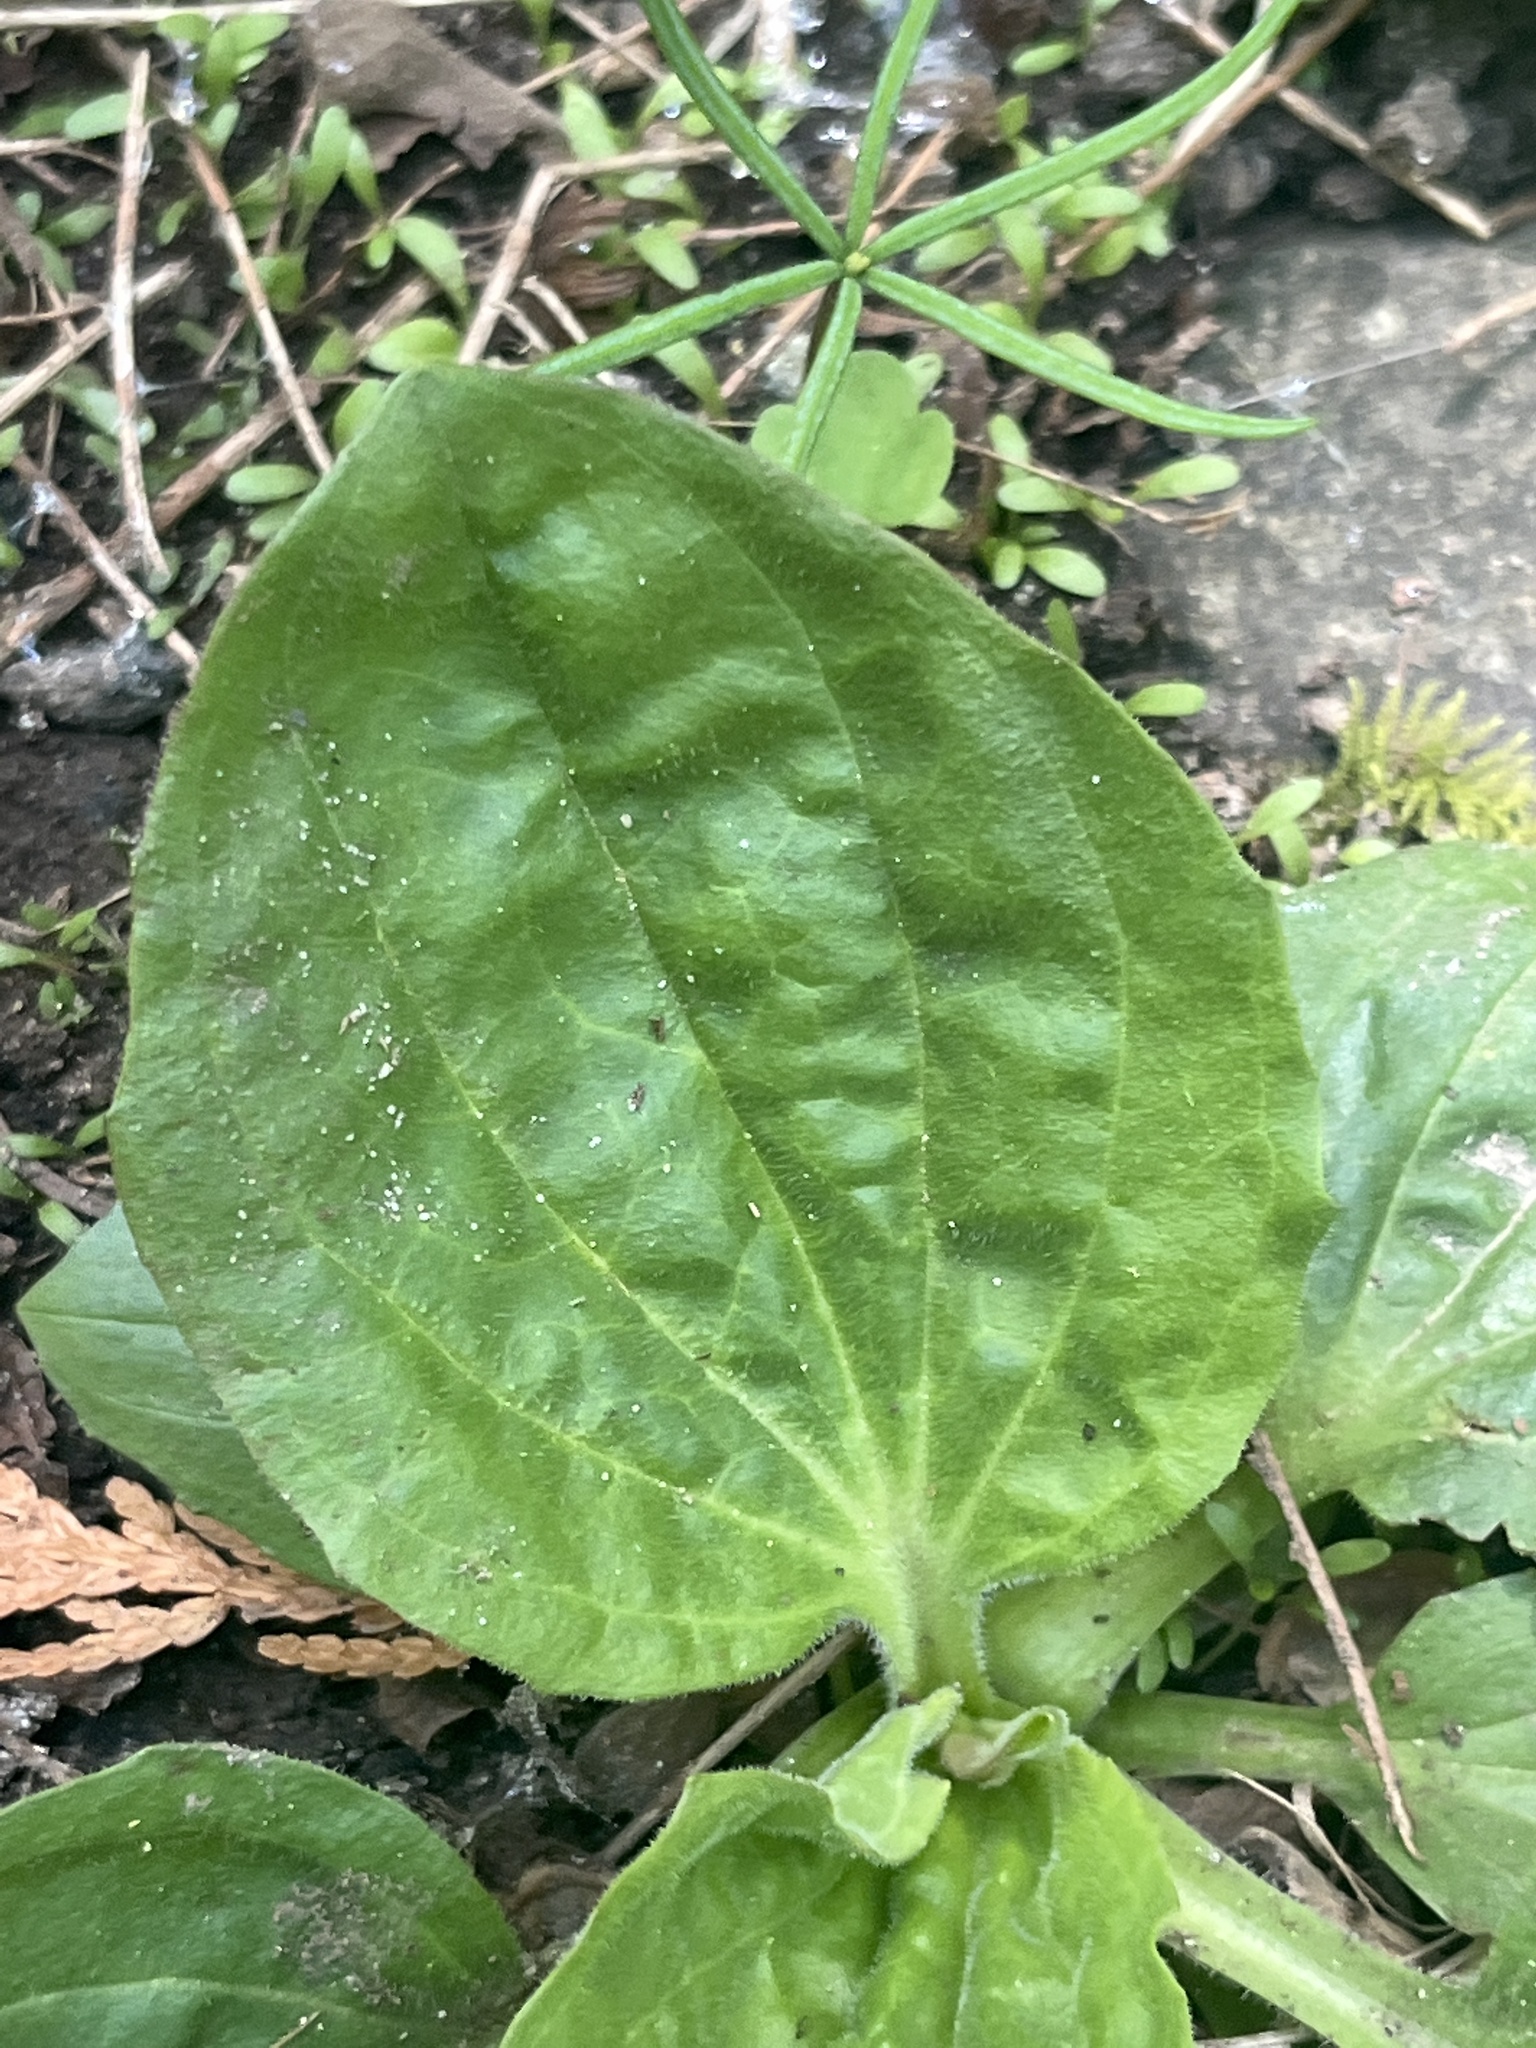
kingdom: Plantae
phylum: Tracheophyta
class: Magnoliopsida
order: Lamiales
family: Plantaginaceae
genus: Plantago
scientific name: Plantago major
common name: Common plantain
